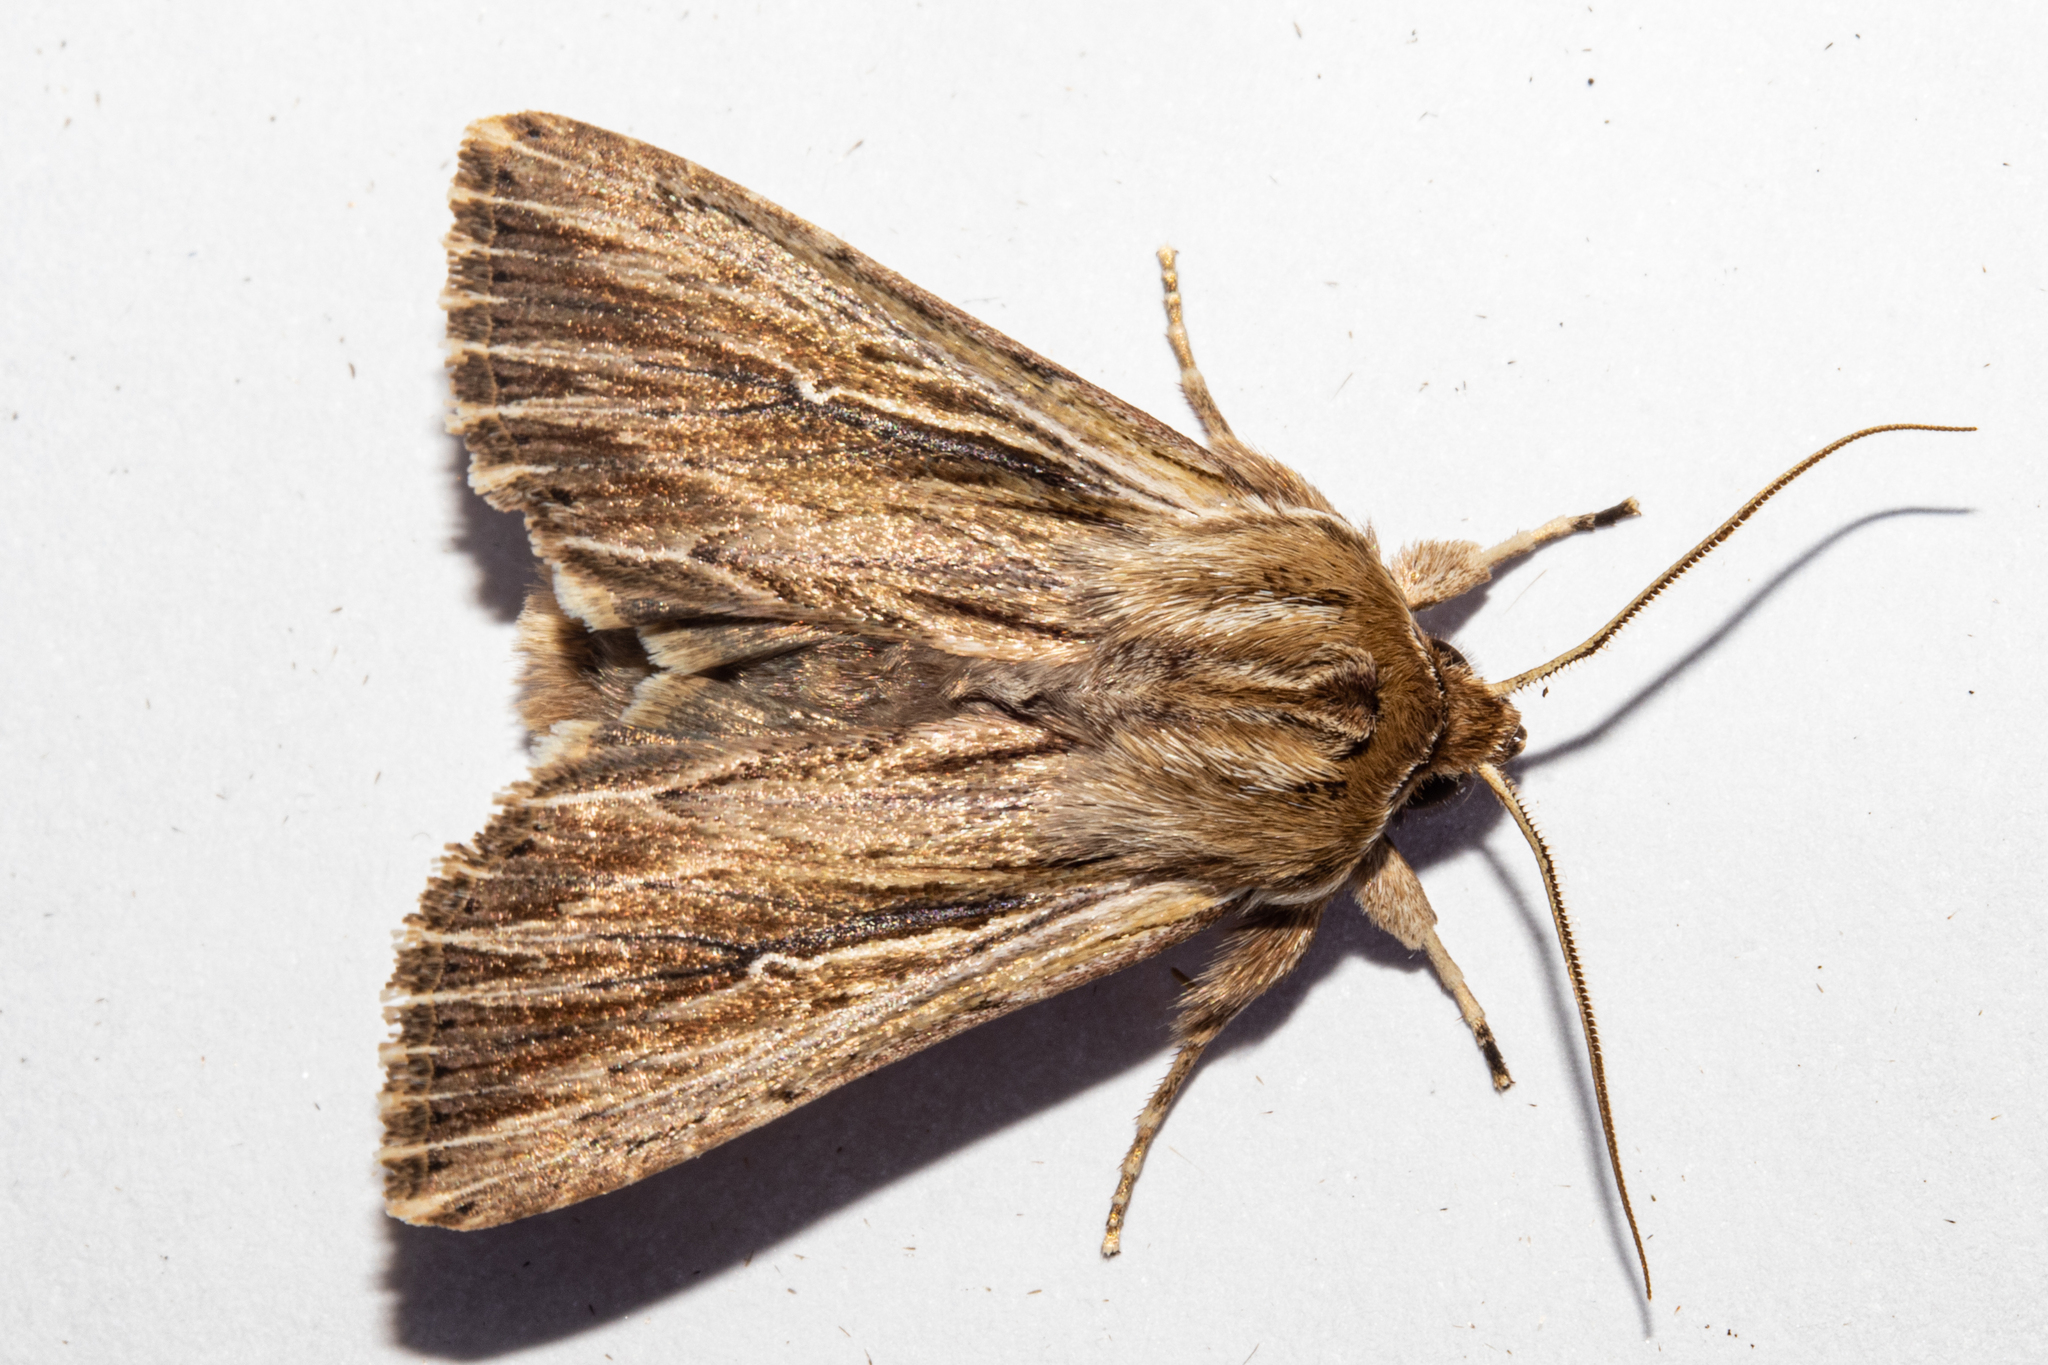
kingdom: Animalia
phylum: Arthropoda
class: Insecta
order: Lepidoptera
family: Noctuidae
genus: Persectania
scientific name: Persectania aversa
